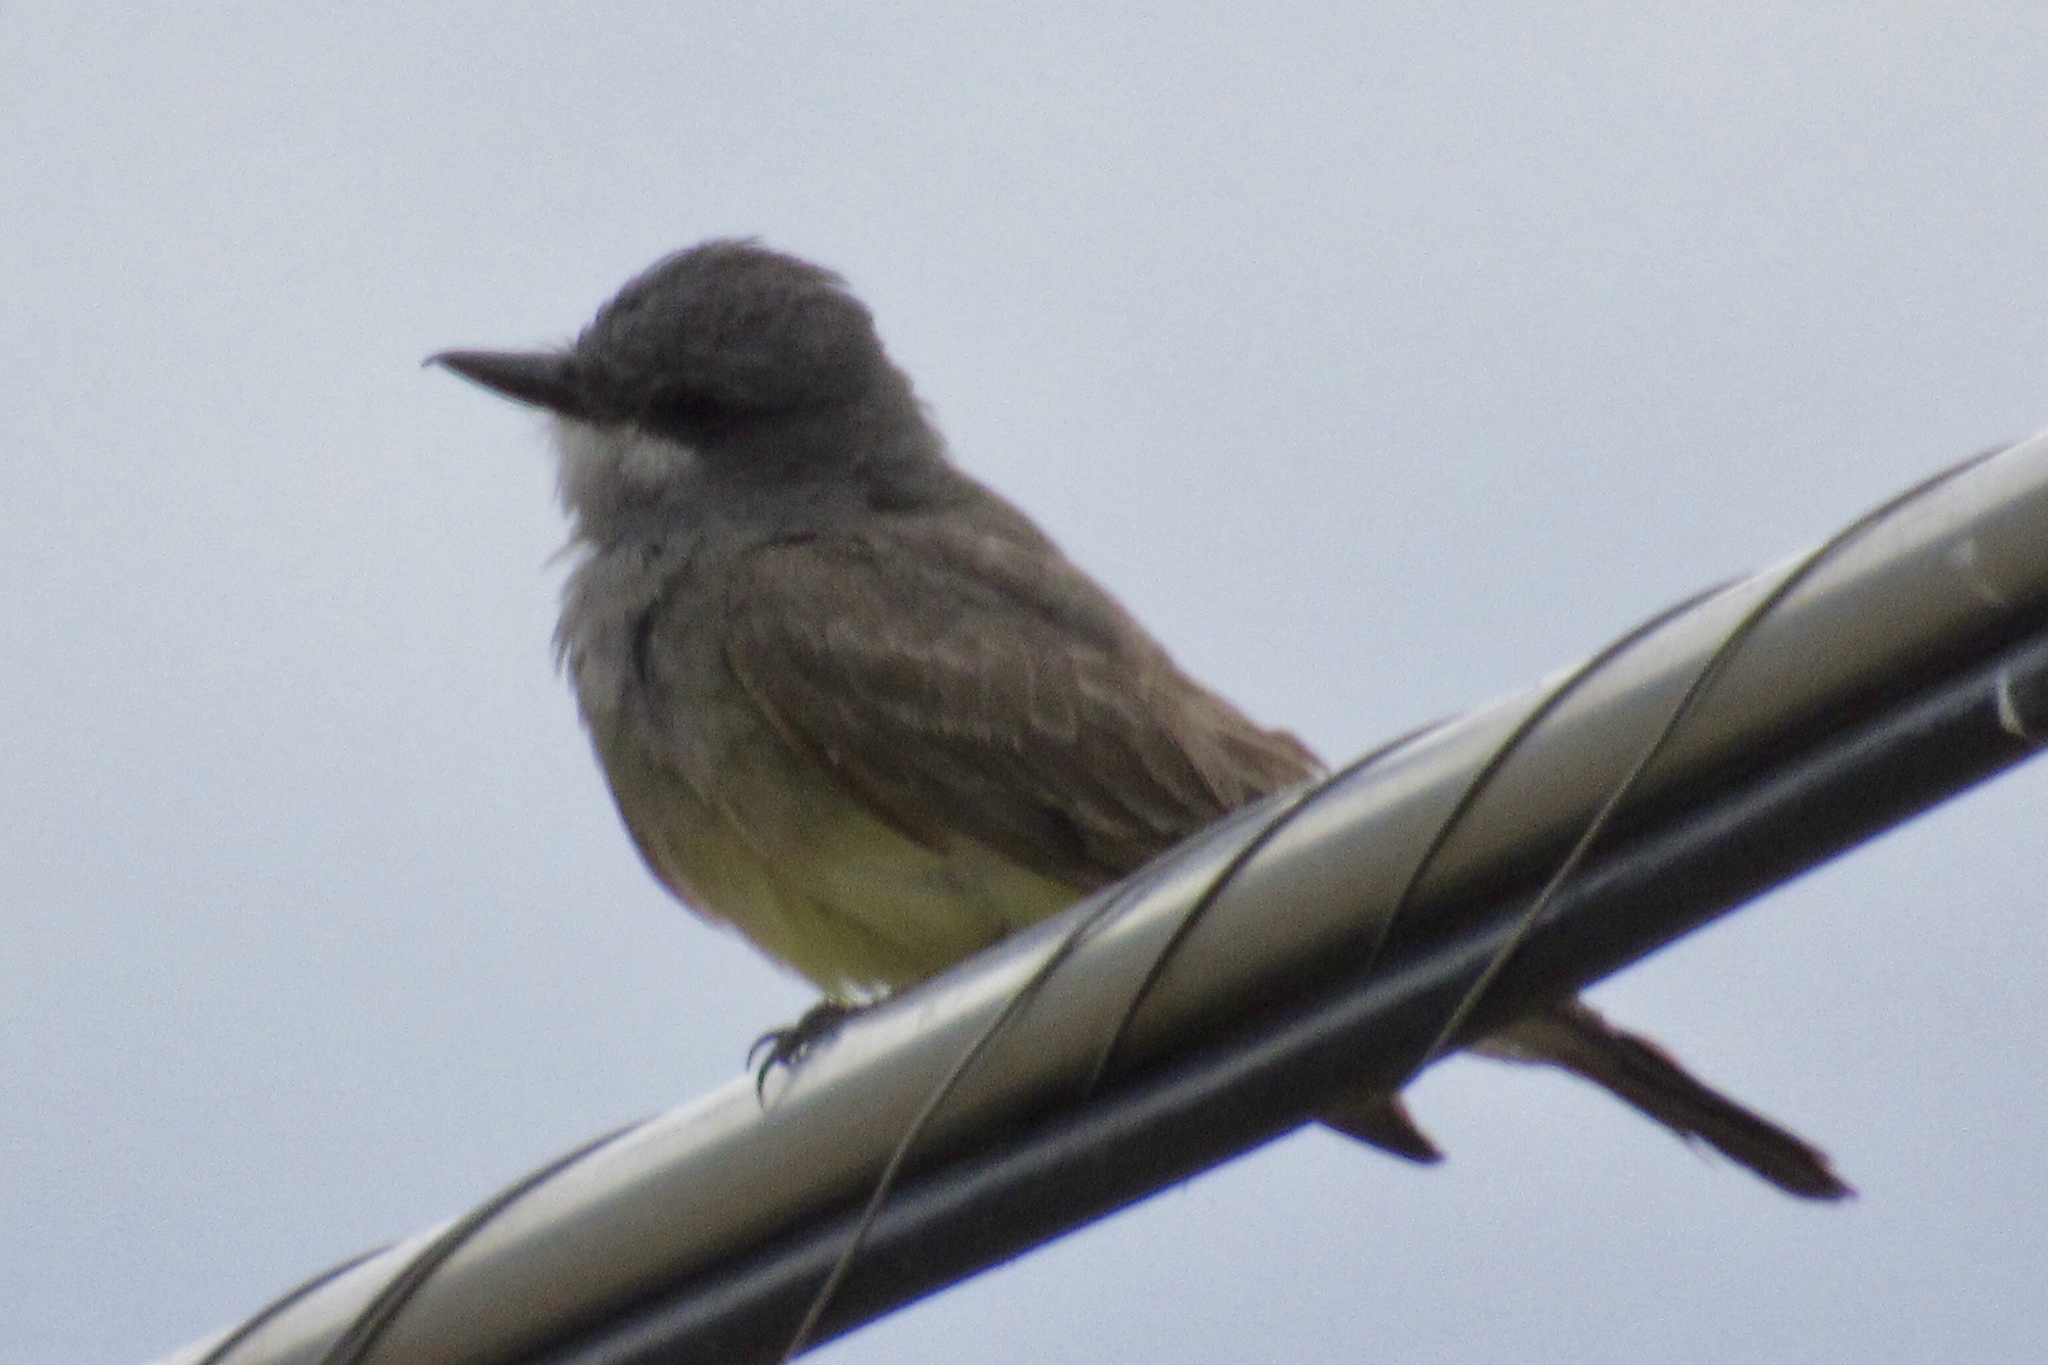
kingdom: Animalia
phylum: Chordata
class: Aves
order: Passeriformes
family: Tyrannidae
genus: Tyrannus
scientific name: Tyrannus vociferans
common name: Cassin's kingbird
